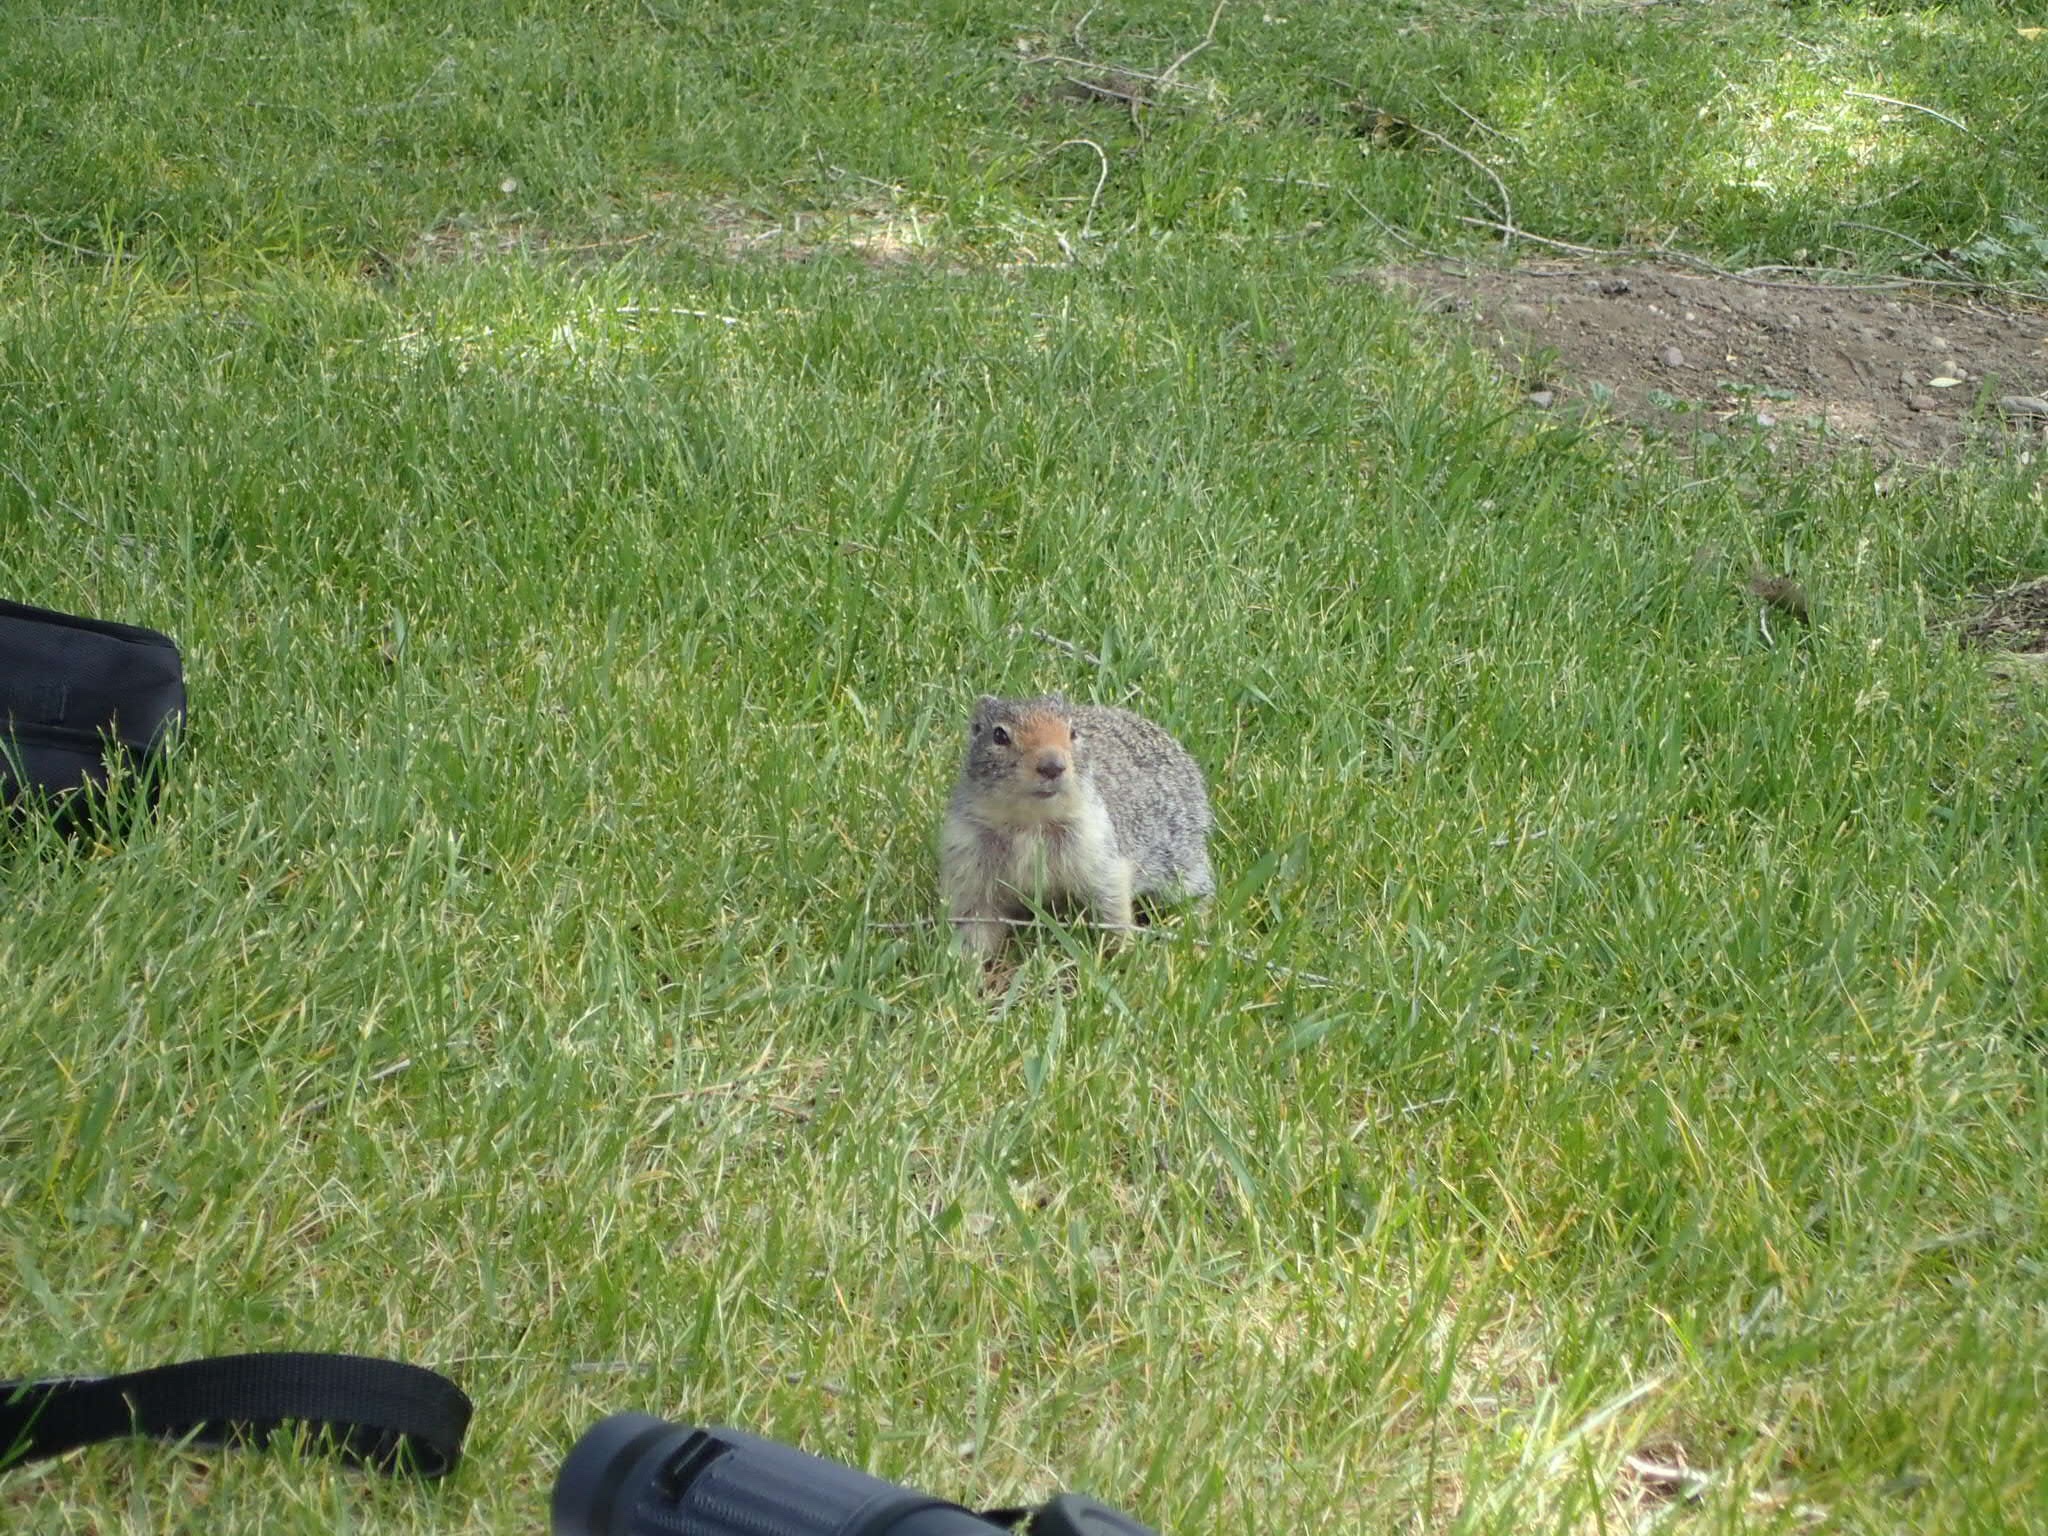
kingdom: Animalia
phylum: Chordata
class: Mammalia
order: Rodentia
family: Sciuridae
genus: Urocitellus
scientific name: Urocitellus columbianus
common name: Columbian ground squirrel
